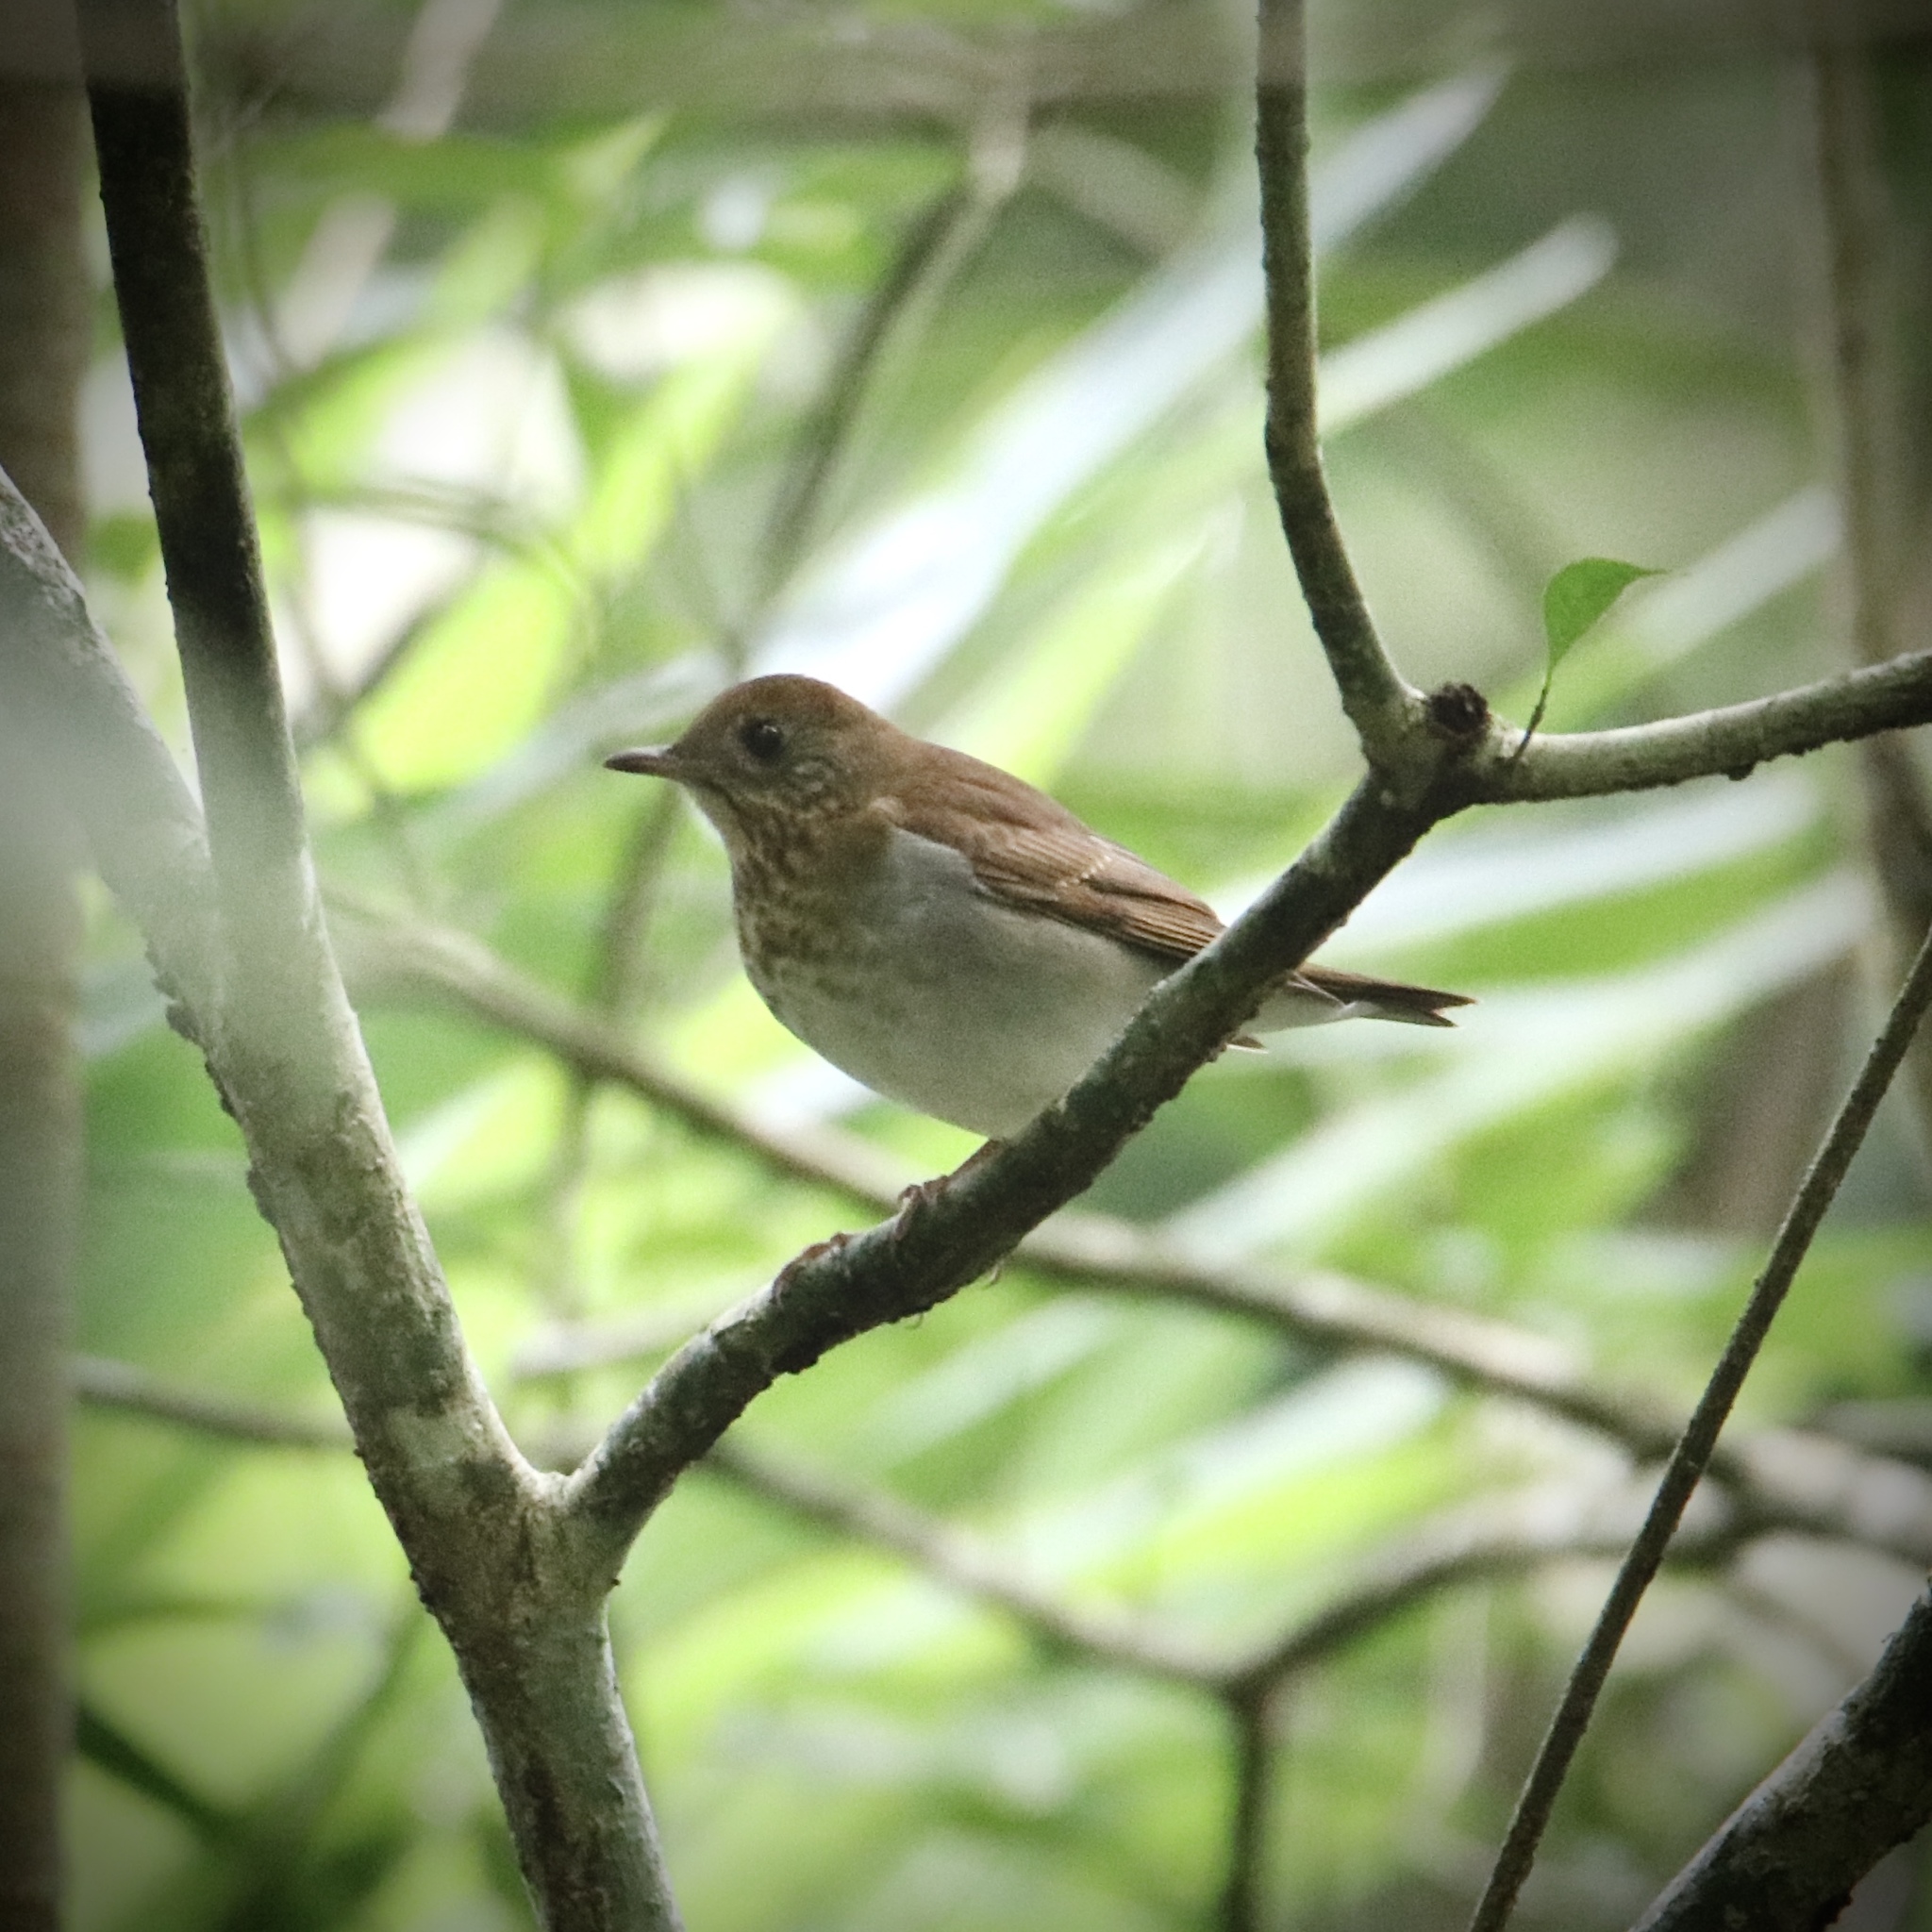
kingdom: Animalia
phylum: Chordata
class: Aves
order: Passeriformes
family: Turdidae
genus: Catharus
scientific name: Catharus fuscescens
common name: Veery
